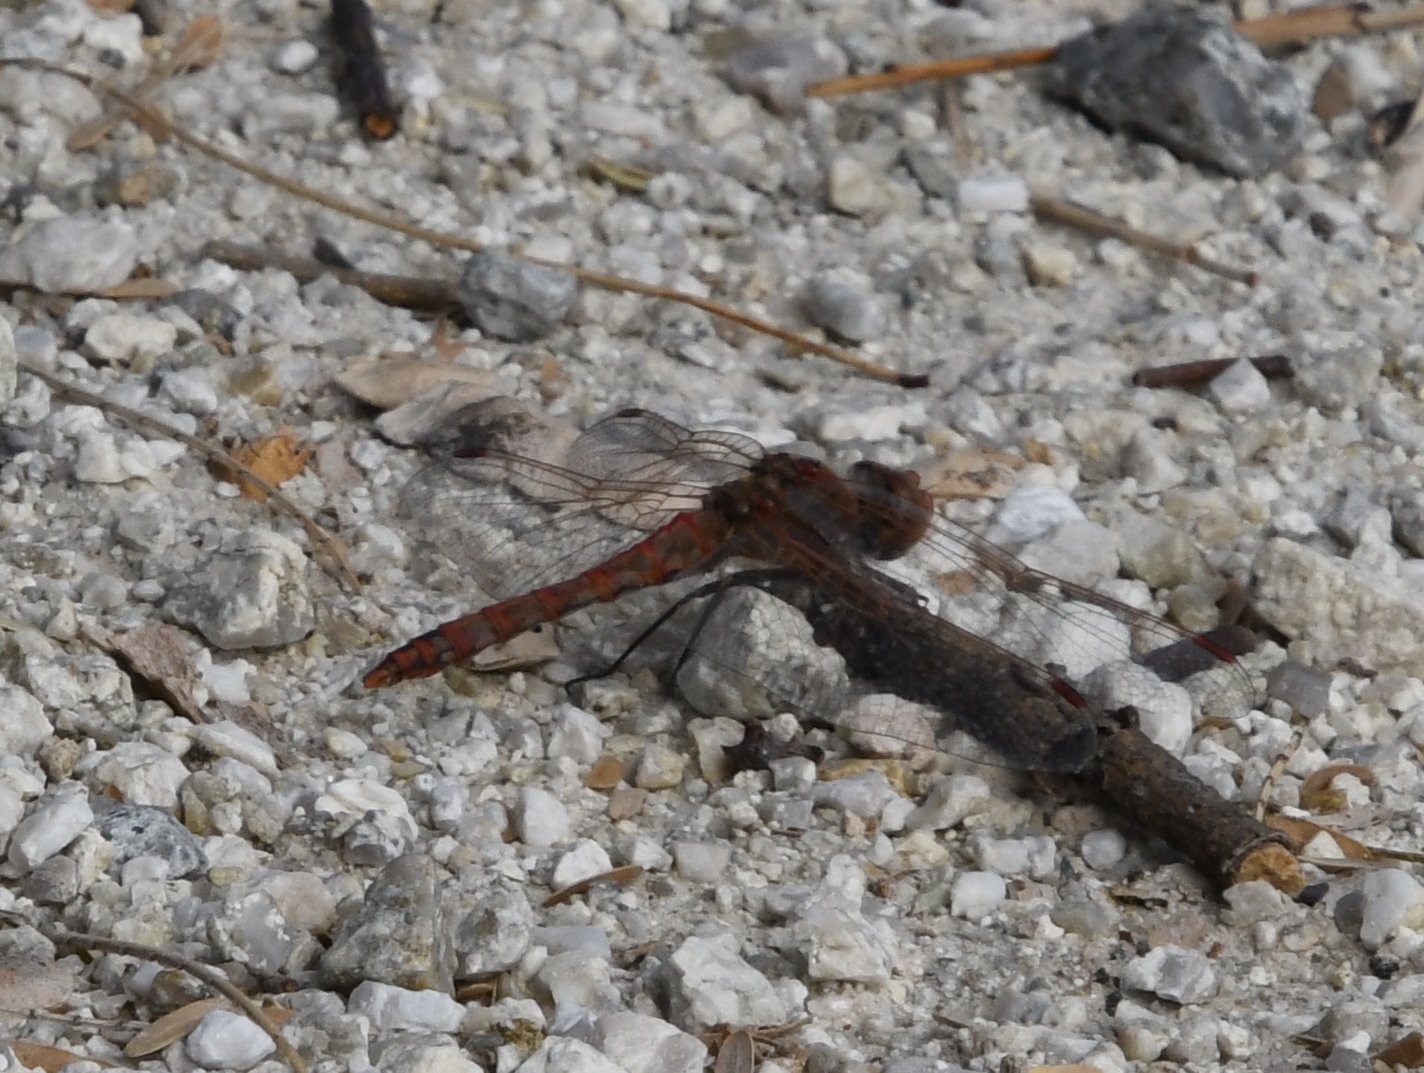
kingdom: Animalia
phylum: Arthropoda
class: Insecta
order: Odonata
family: Libellulidae
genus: Sympetrum
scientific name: Sympetrum corruptum
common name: Variegated meadowhawk
